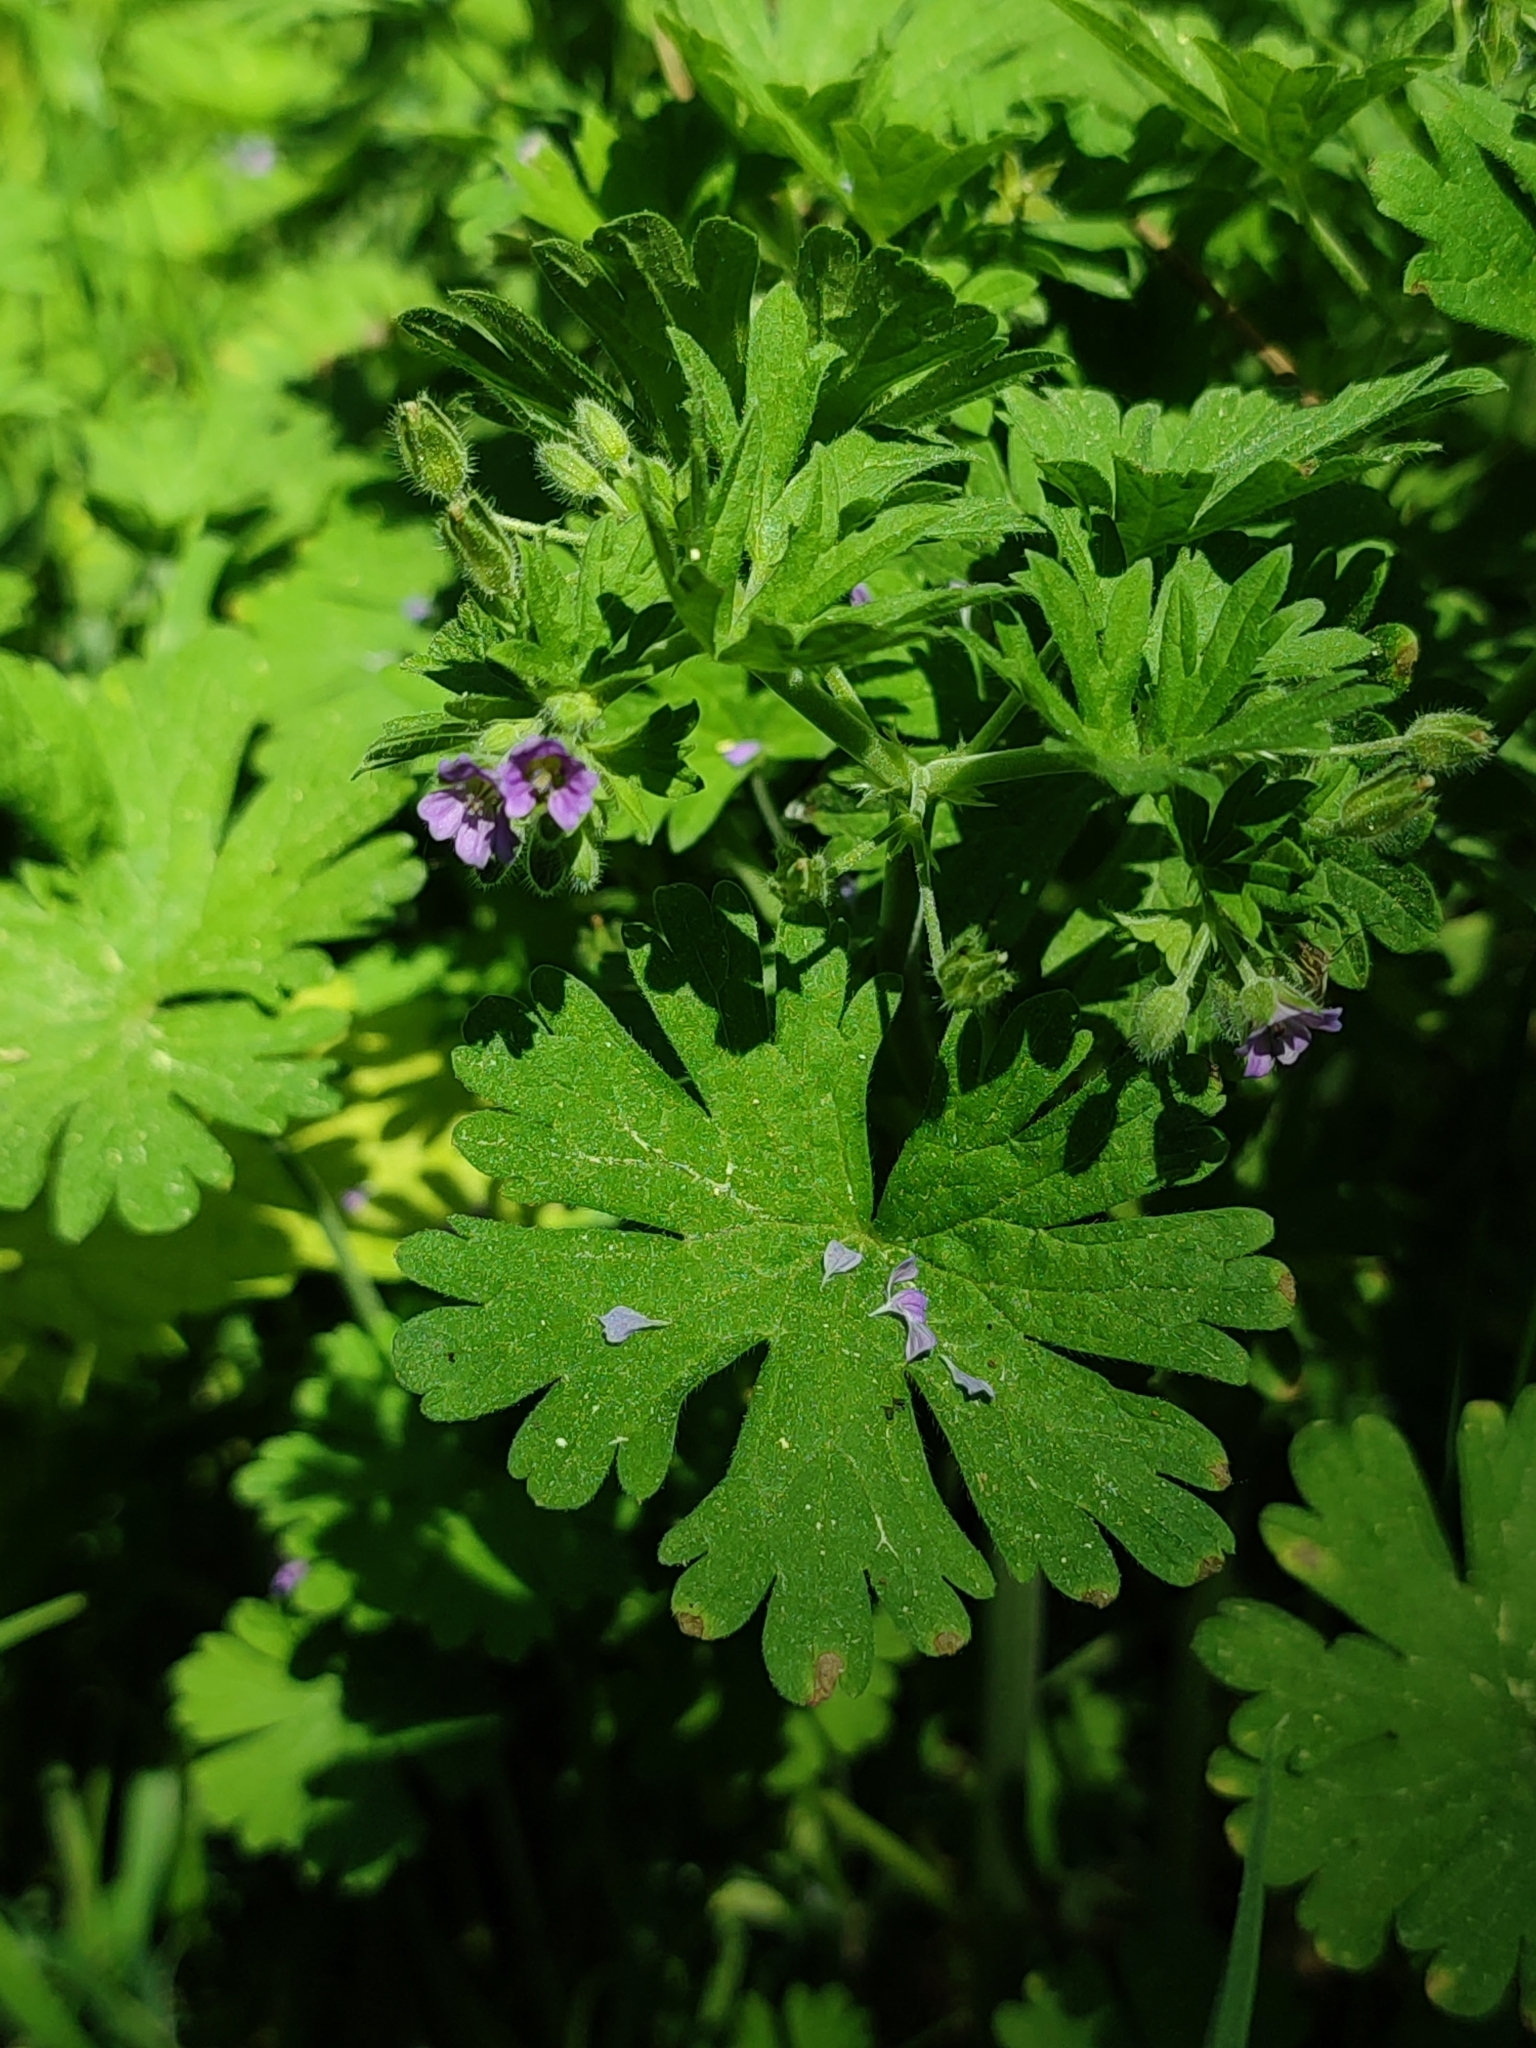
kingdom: Plantae
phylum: Tracheophyta
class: Magnoliopsida
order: Geraniales
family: Geraniaceae
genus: Geranium
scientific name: Geranium pusillum
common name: Small geranium
